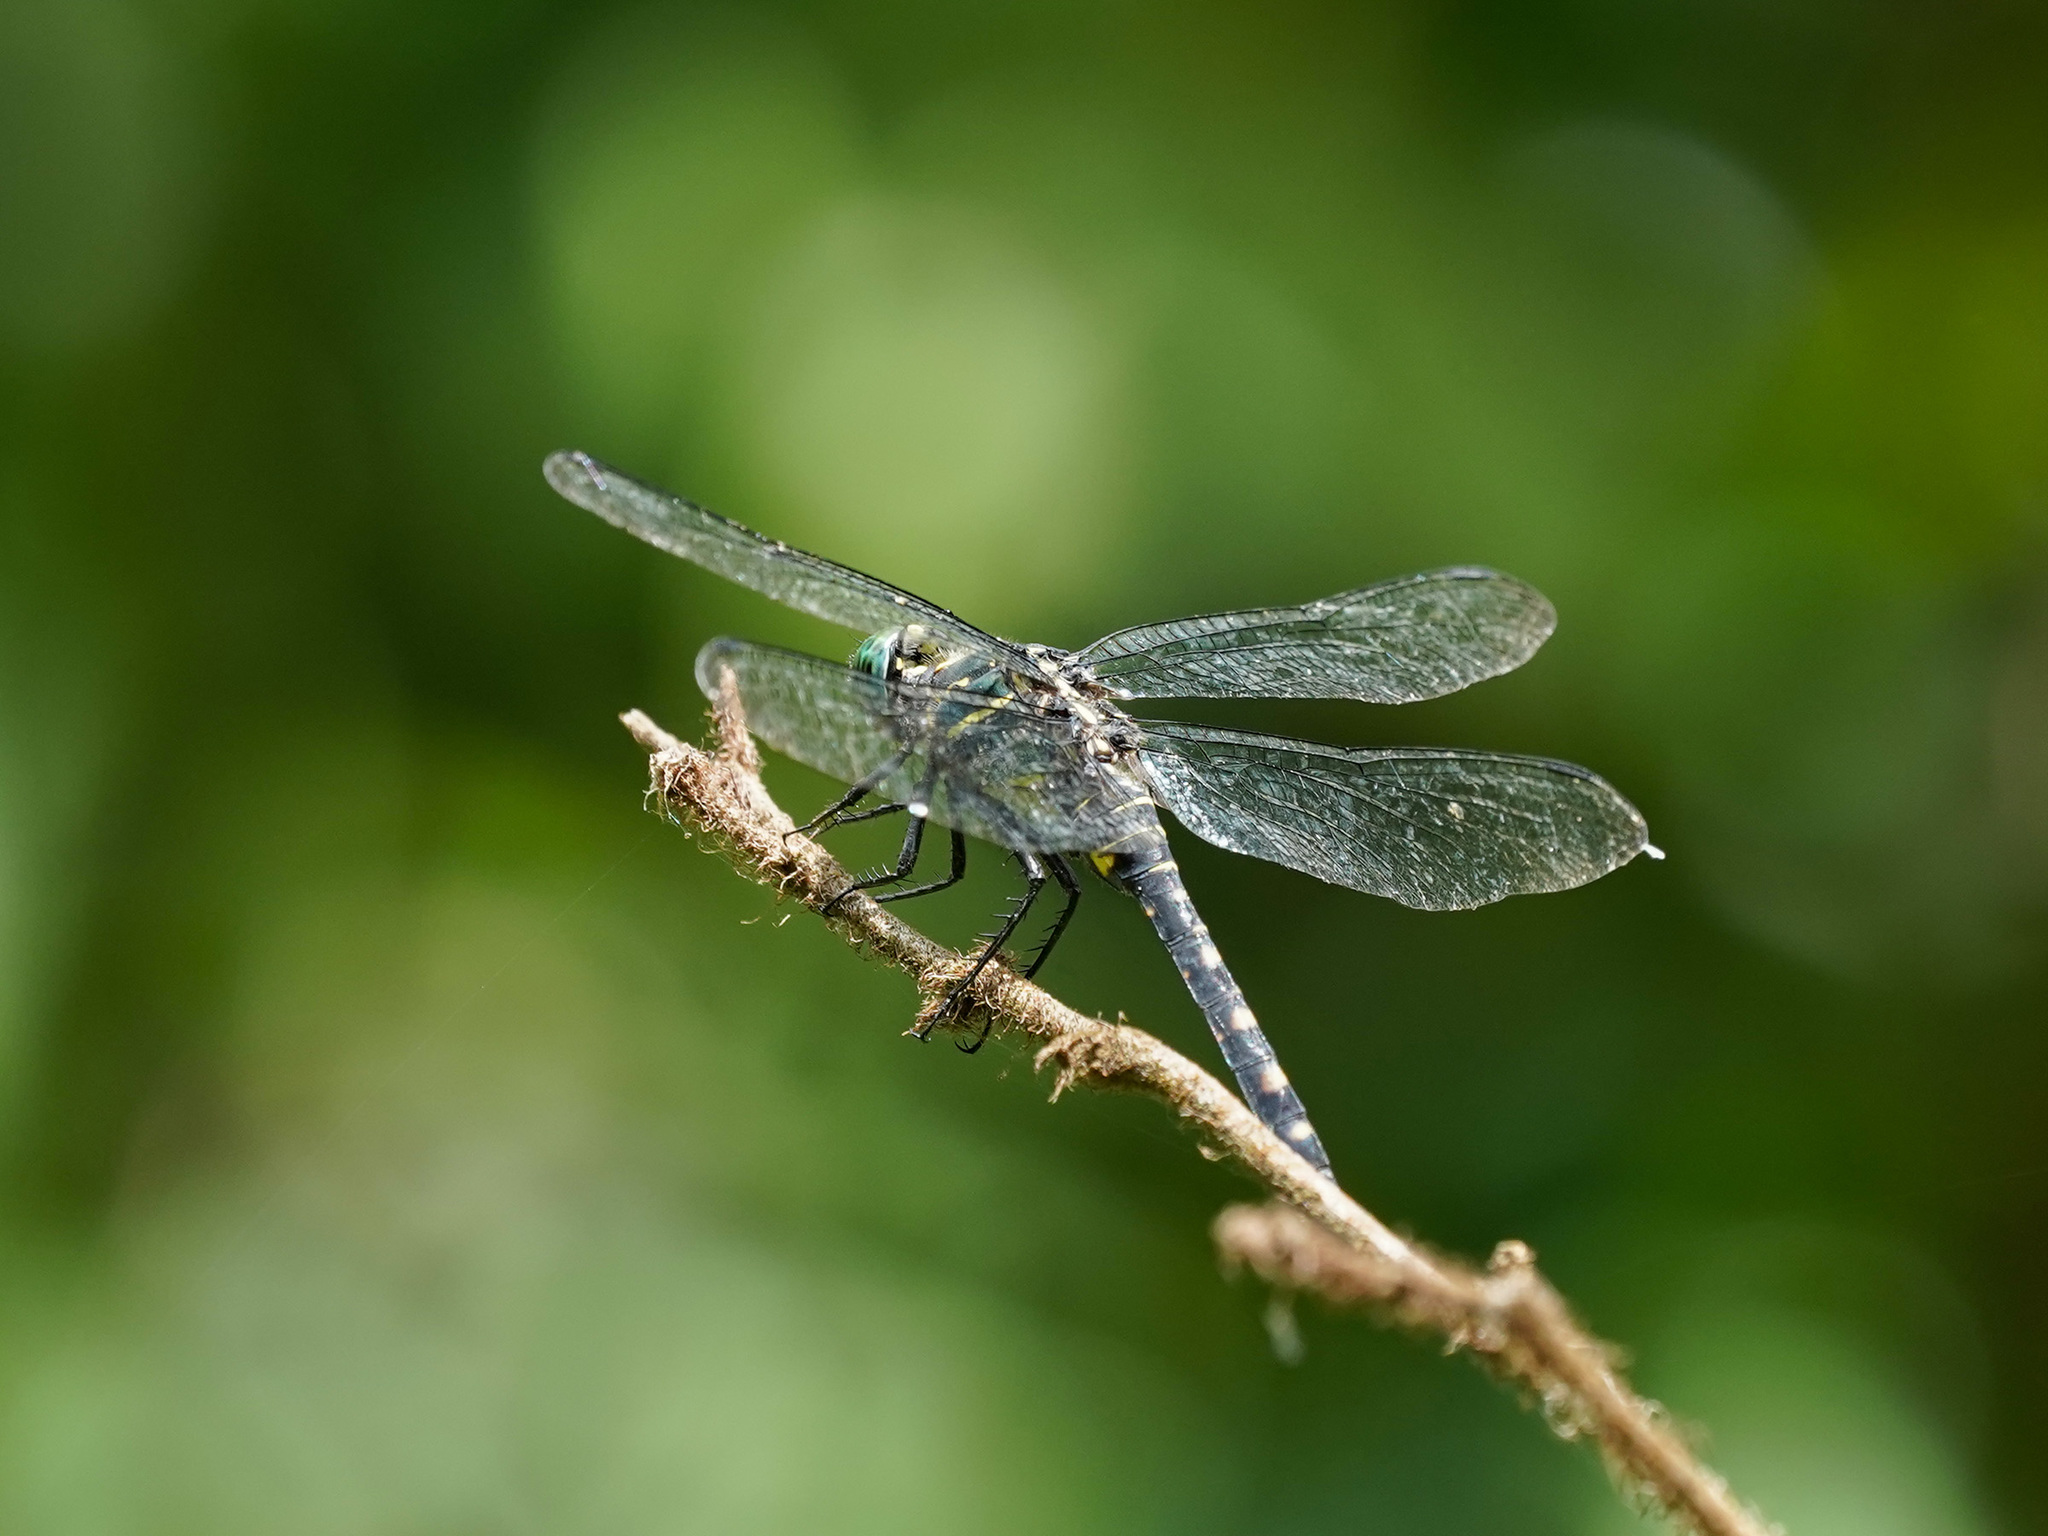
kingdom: Animalia
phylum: Arthropoda
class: Insecta
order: Odonata
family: Libellulidae
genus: Onychothemis
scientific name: Onychothemis testacea
